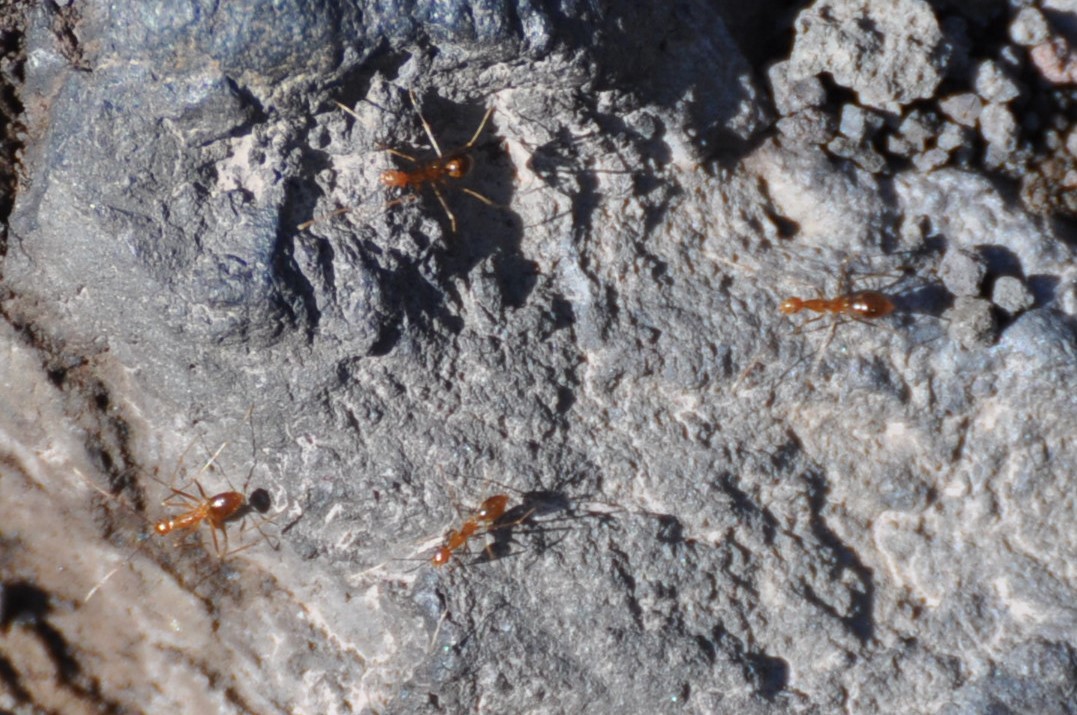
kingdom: Animalia
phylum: Arthropoda
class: Insecta
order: Hymenoptera
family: Formicidae
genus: Anoplolepis
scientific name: Anoplolepis gracilipes
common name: Ant
